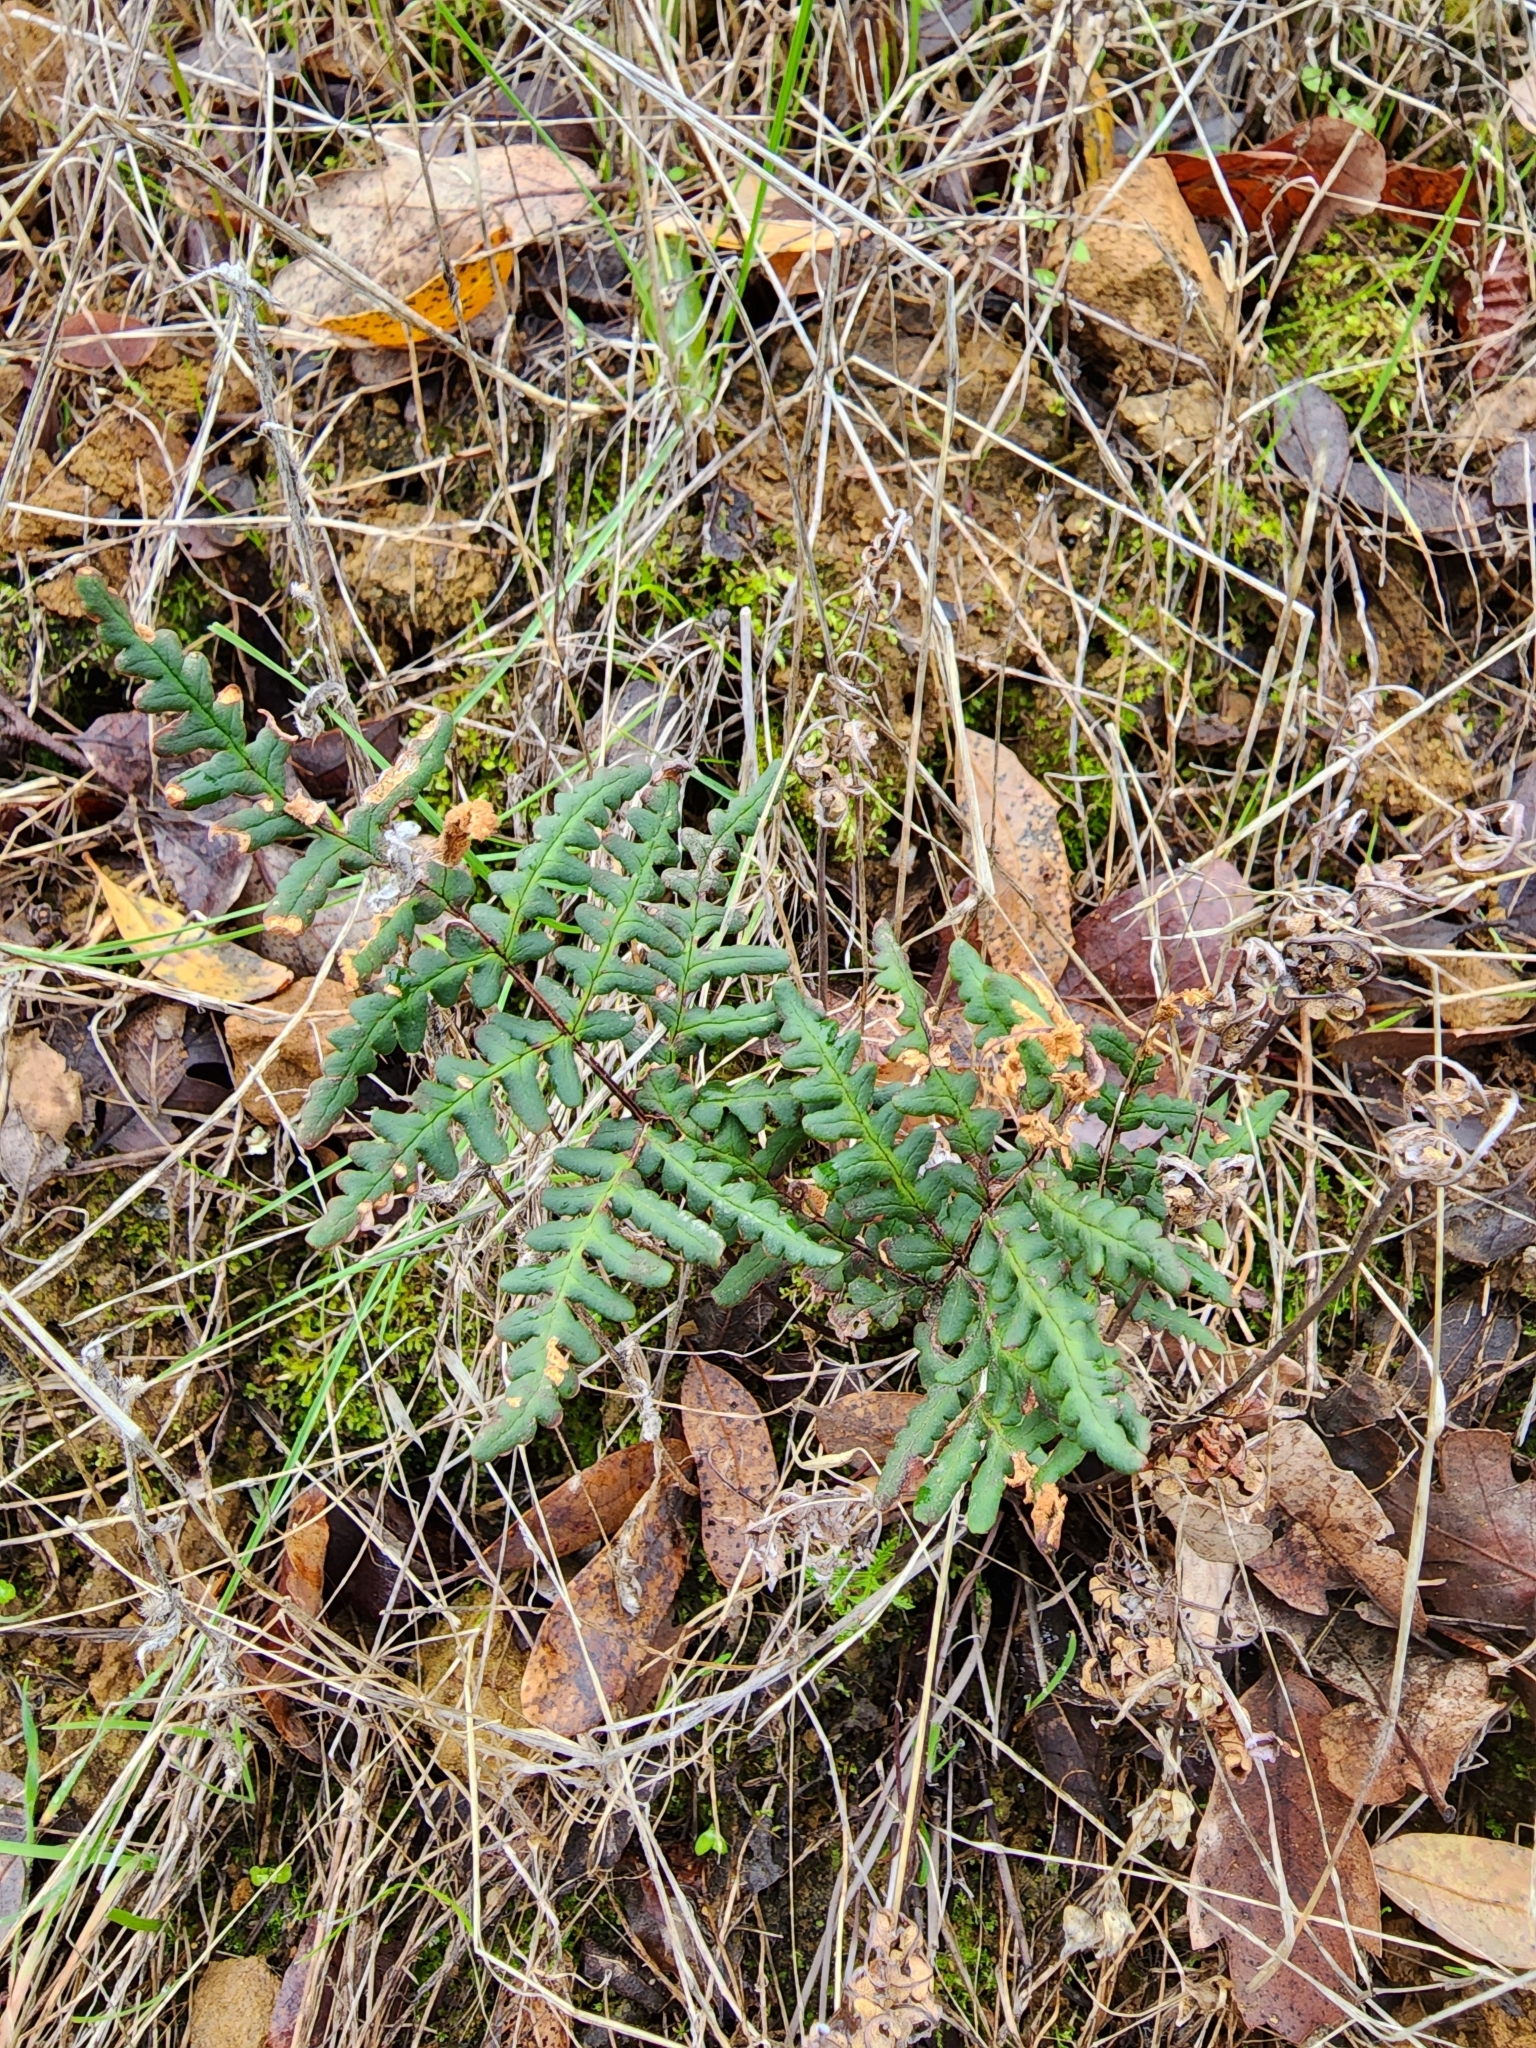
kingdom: Plantae
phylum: Tracheophyta
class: Polypodiopsida
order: Polypodiales
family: Pteridaceae
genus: Pentagramma
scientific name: Pentagramma triangularis
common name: Gold fern
